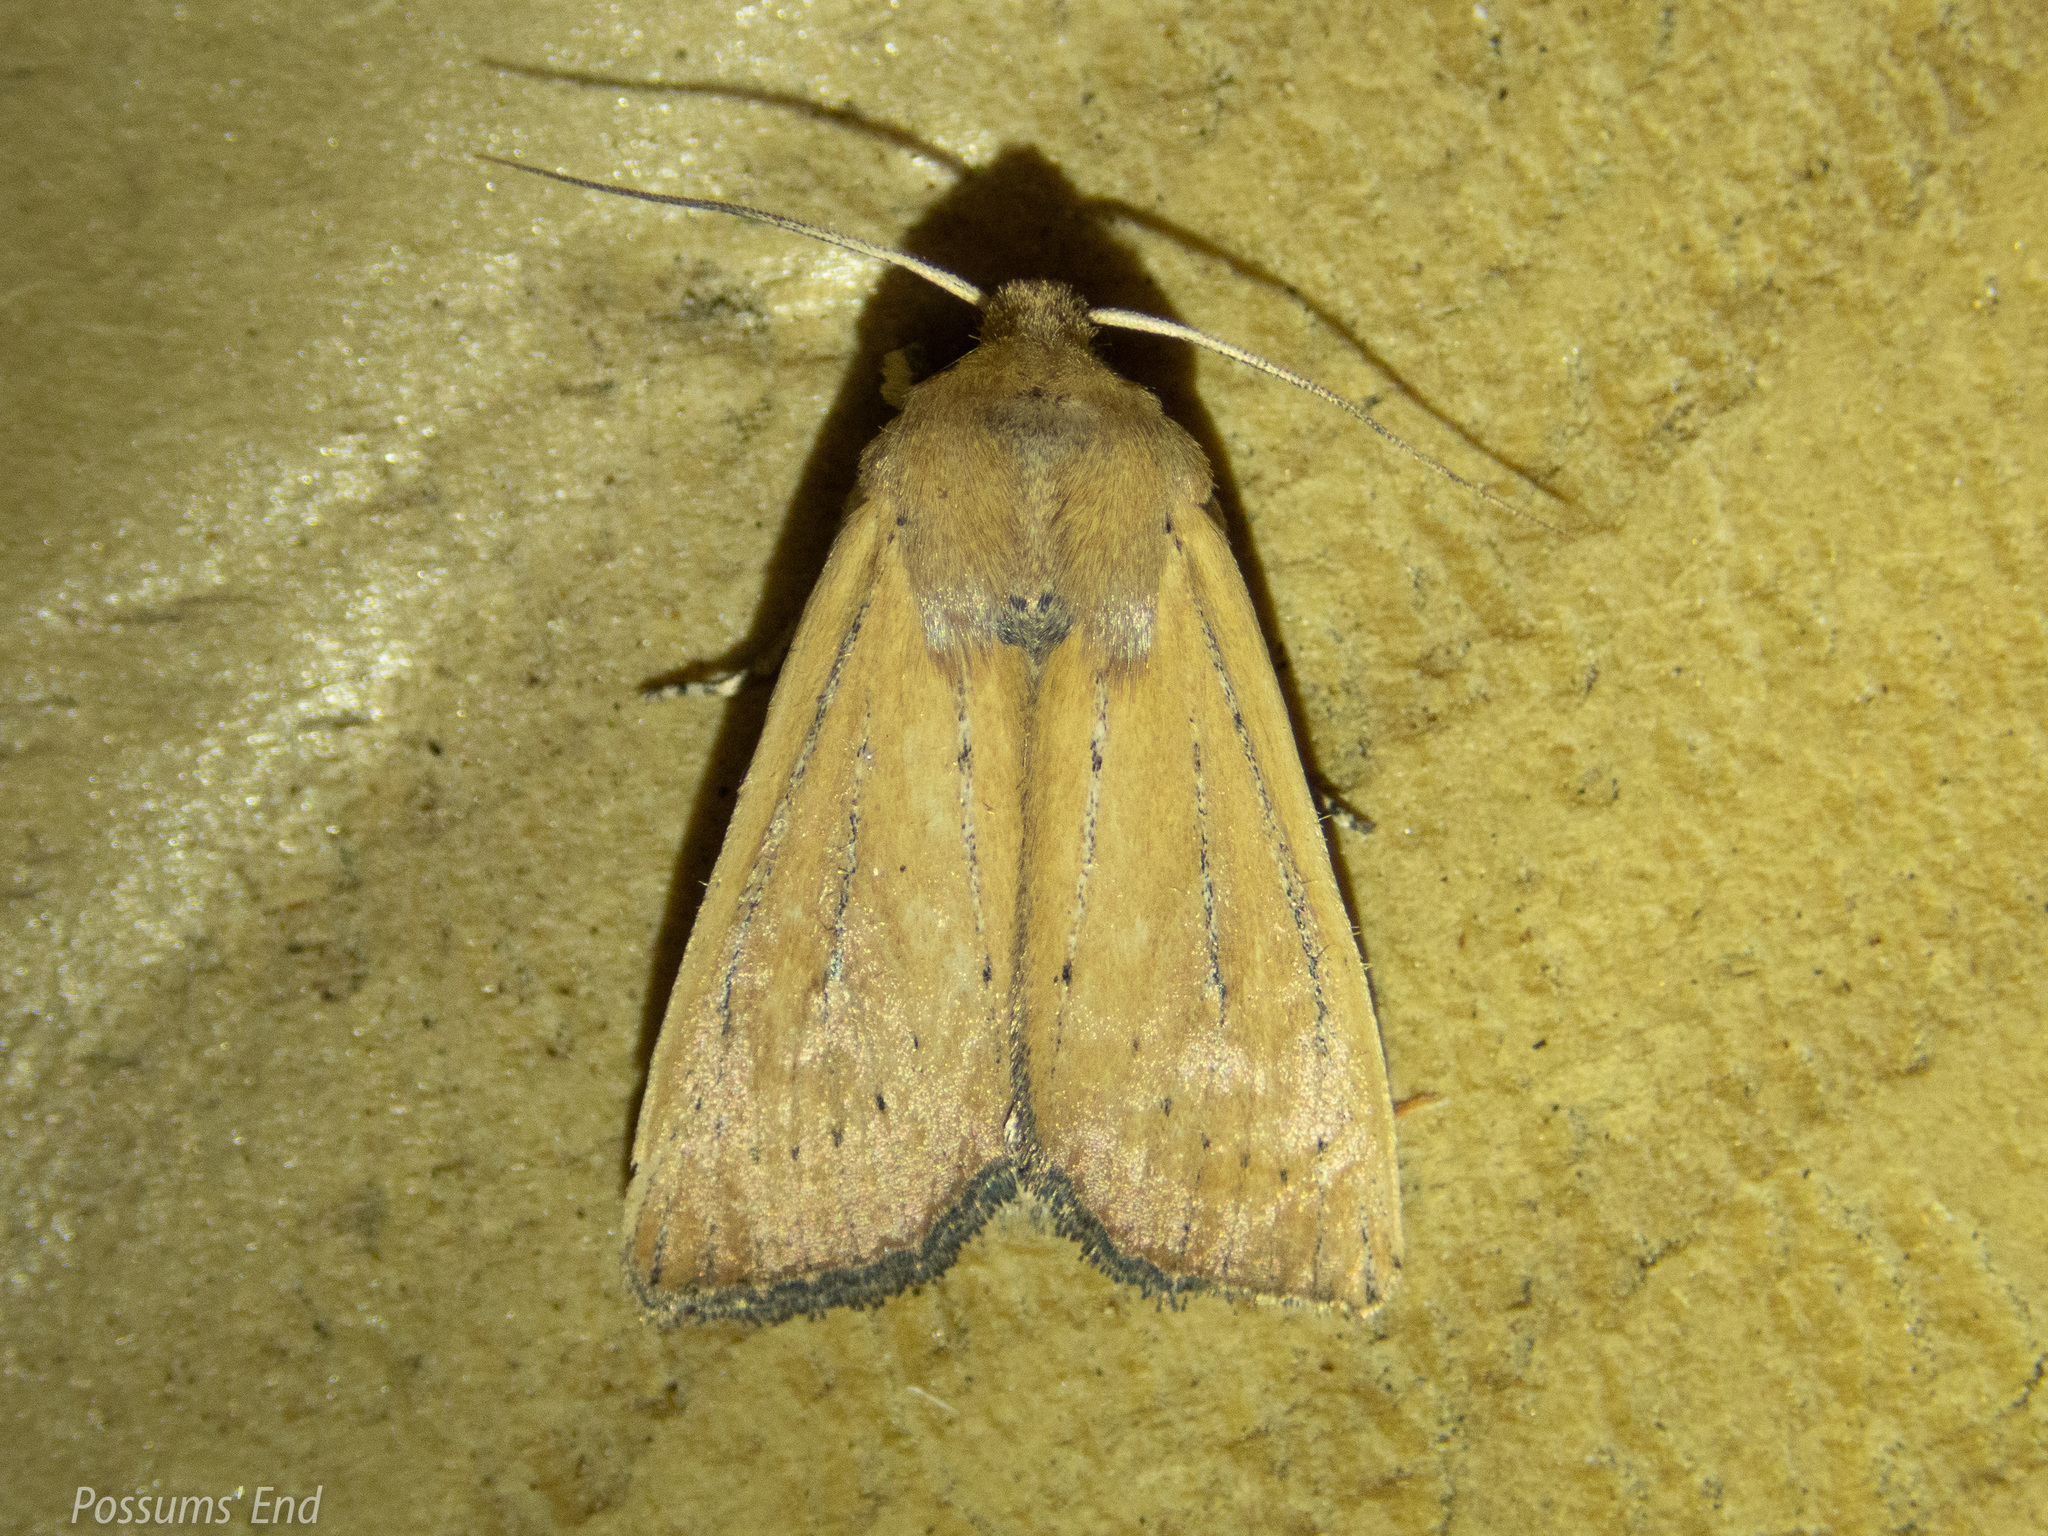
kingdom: Animalia
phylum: Arthropoda
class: Insecta
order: Lepidoptera
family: Noctuidae
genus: Ichneutica
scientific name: Ichneutica blenheimensis
